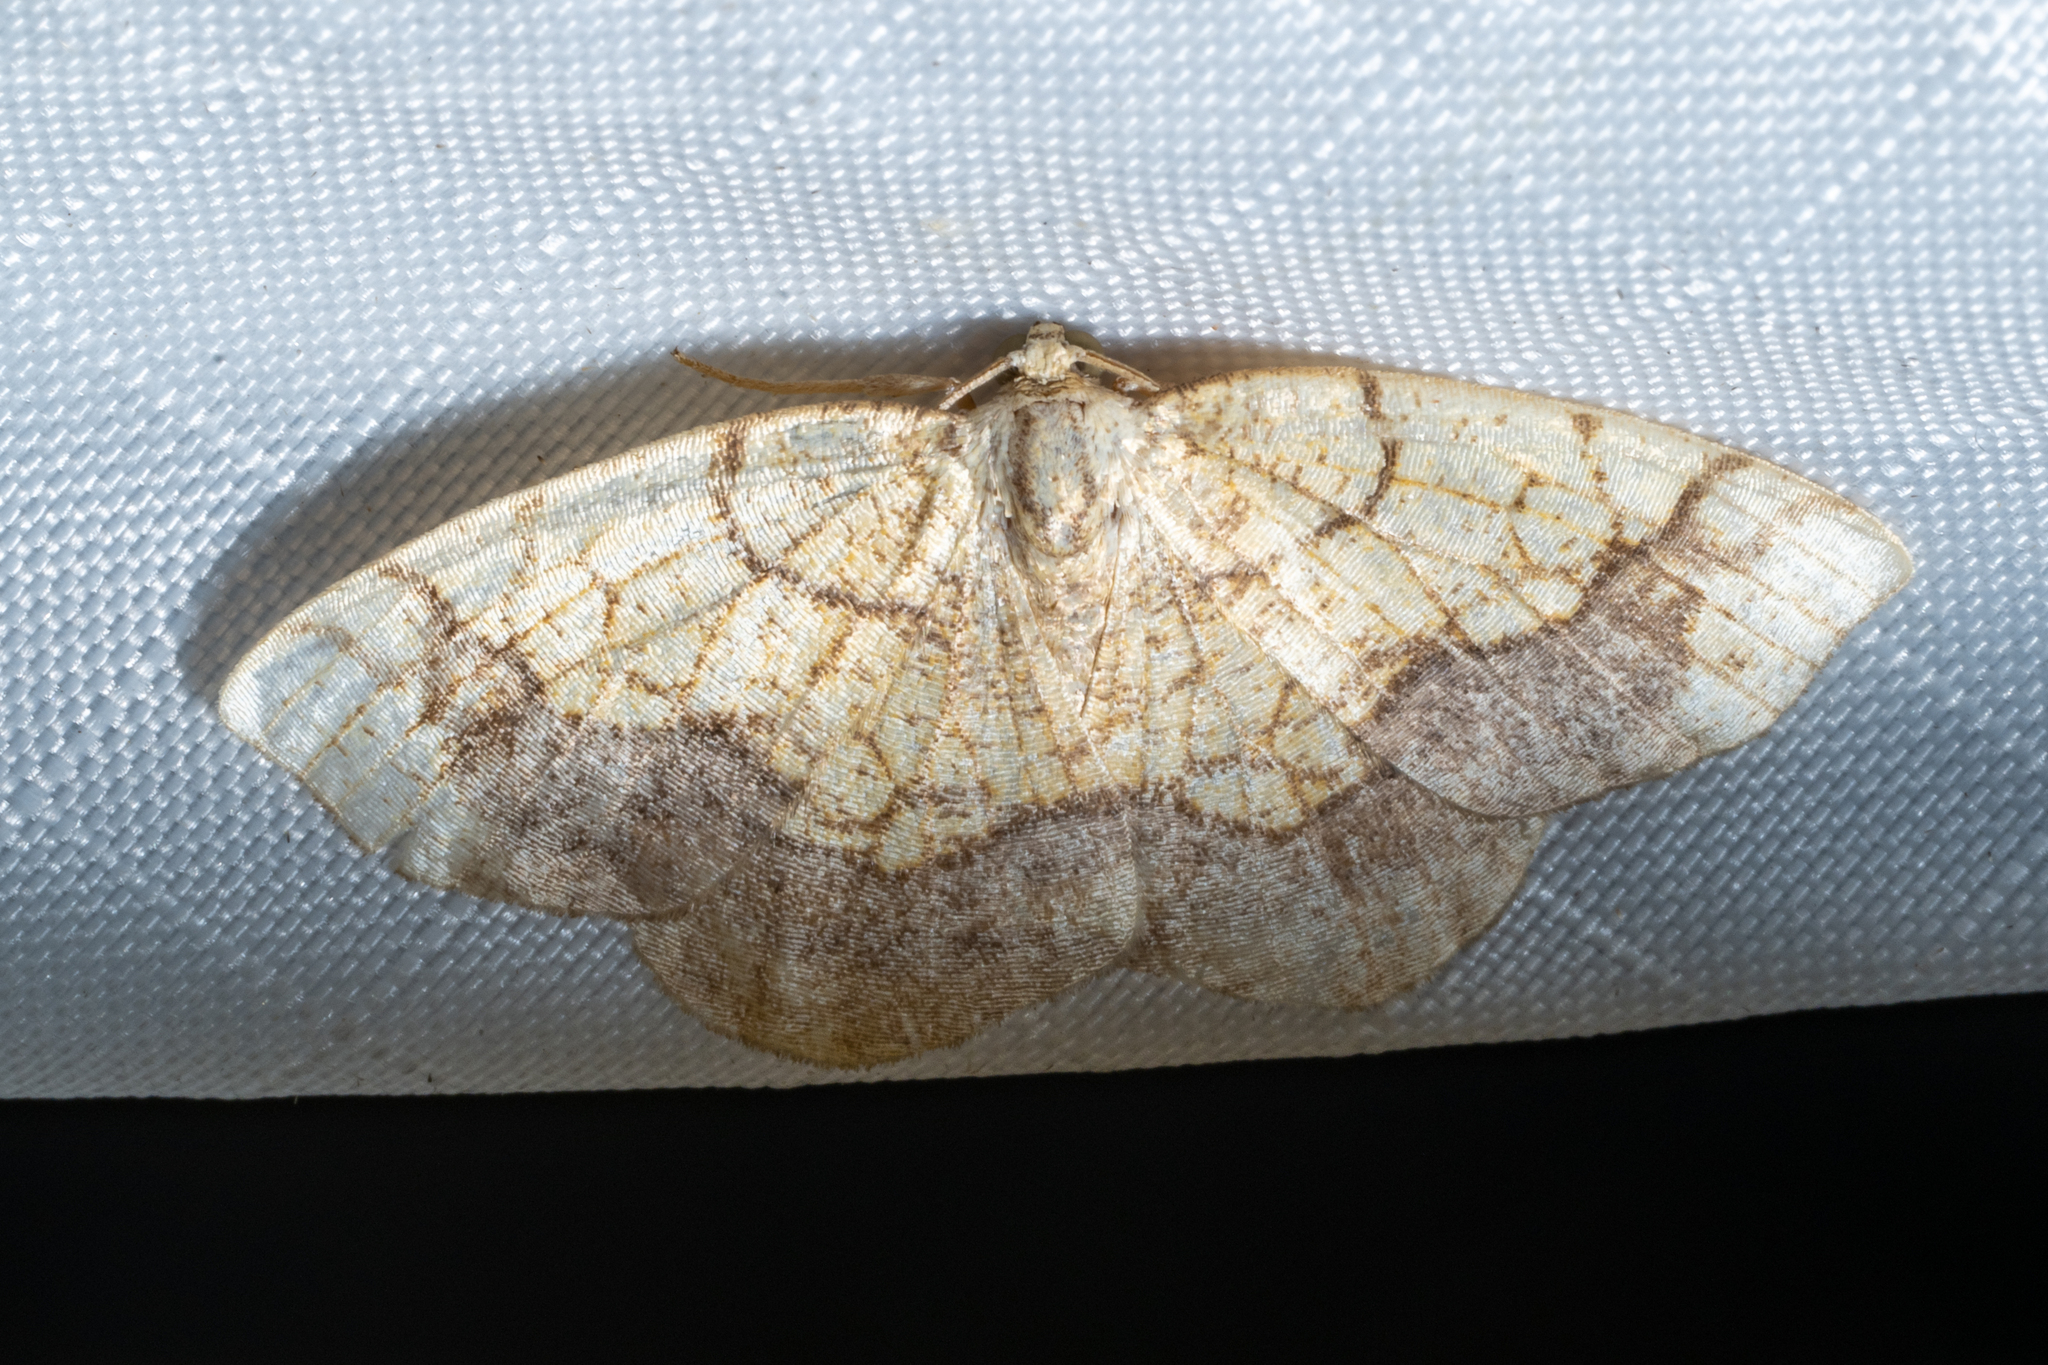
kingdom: Animalia
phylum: Arthropoda
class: Insecta
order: Lepidoptera
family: Geometridae
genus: Nematocampa
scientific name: Nematocampa resistaria
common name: Horned spanworm moth
